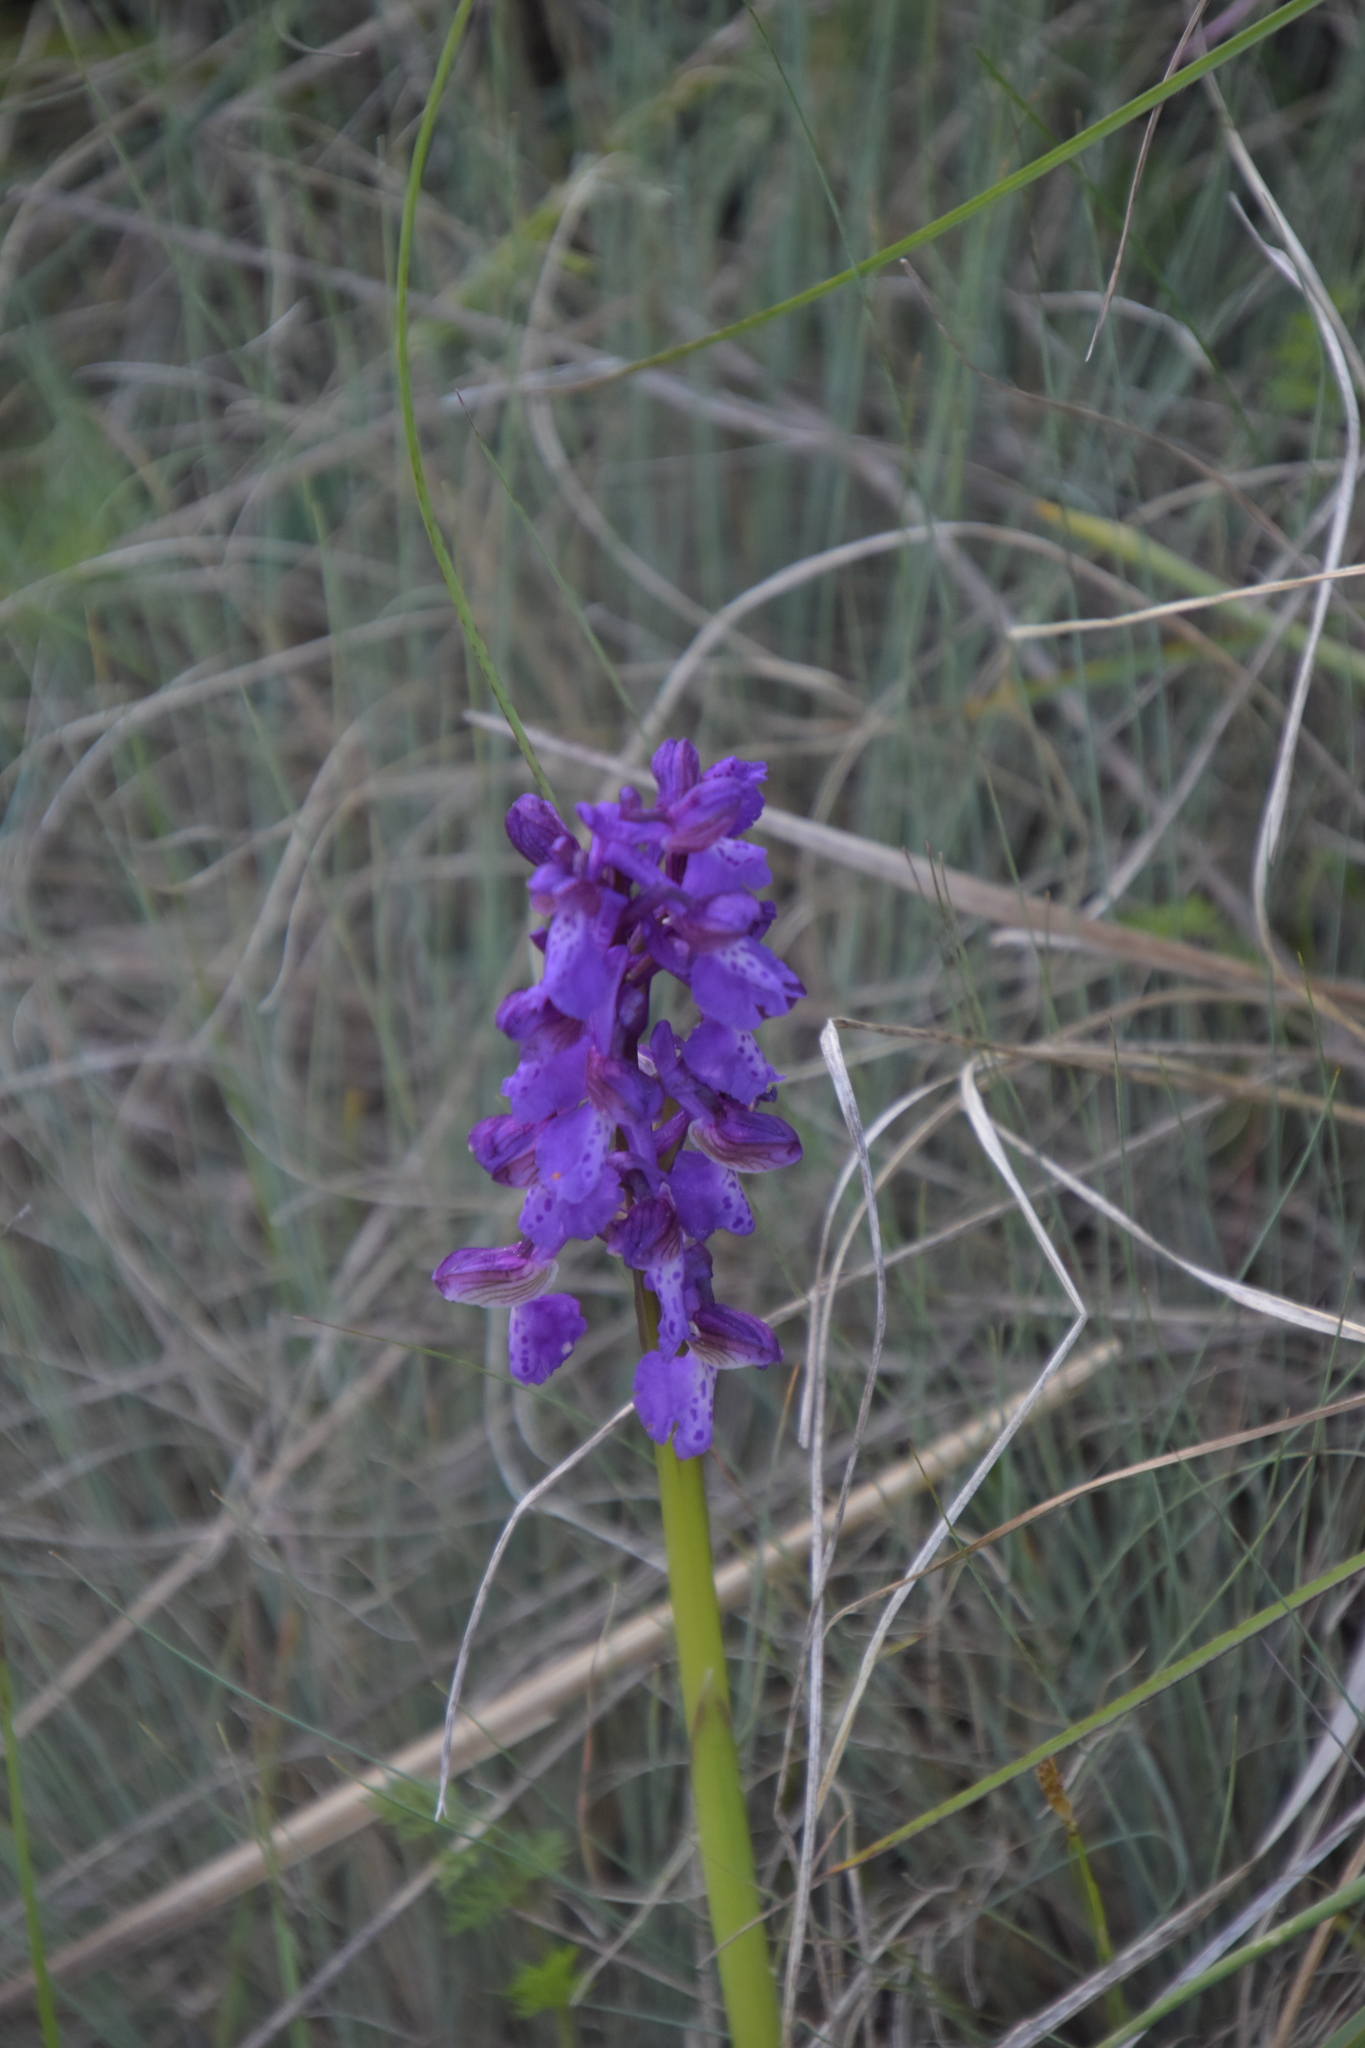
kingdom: Plantae
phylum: Tracheophyta
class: Liliopsida
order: Asparagales
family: Orchidaceae
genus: Anacamptis
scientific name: Anacamptis morio
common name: Green-winged orchid
